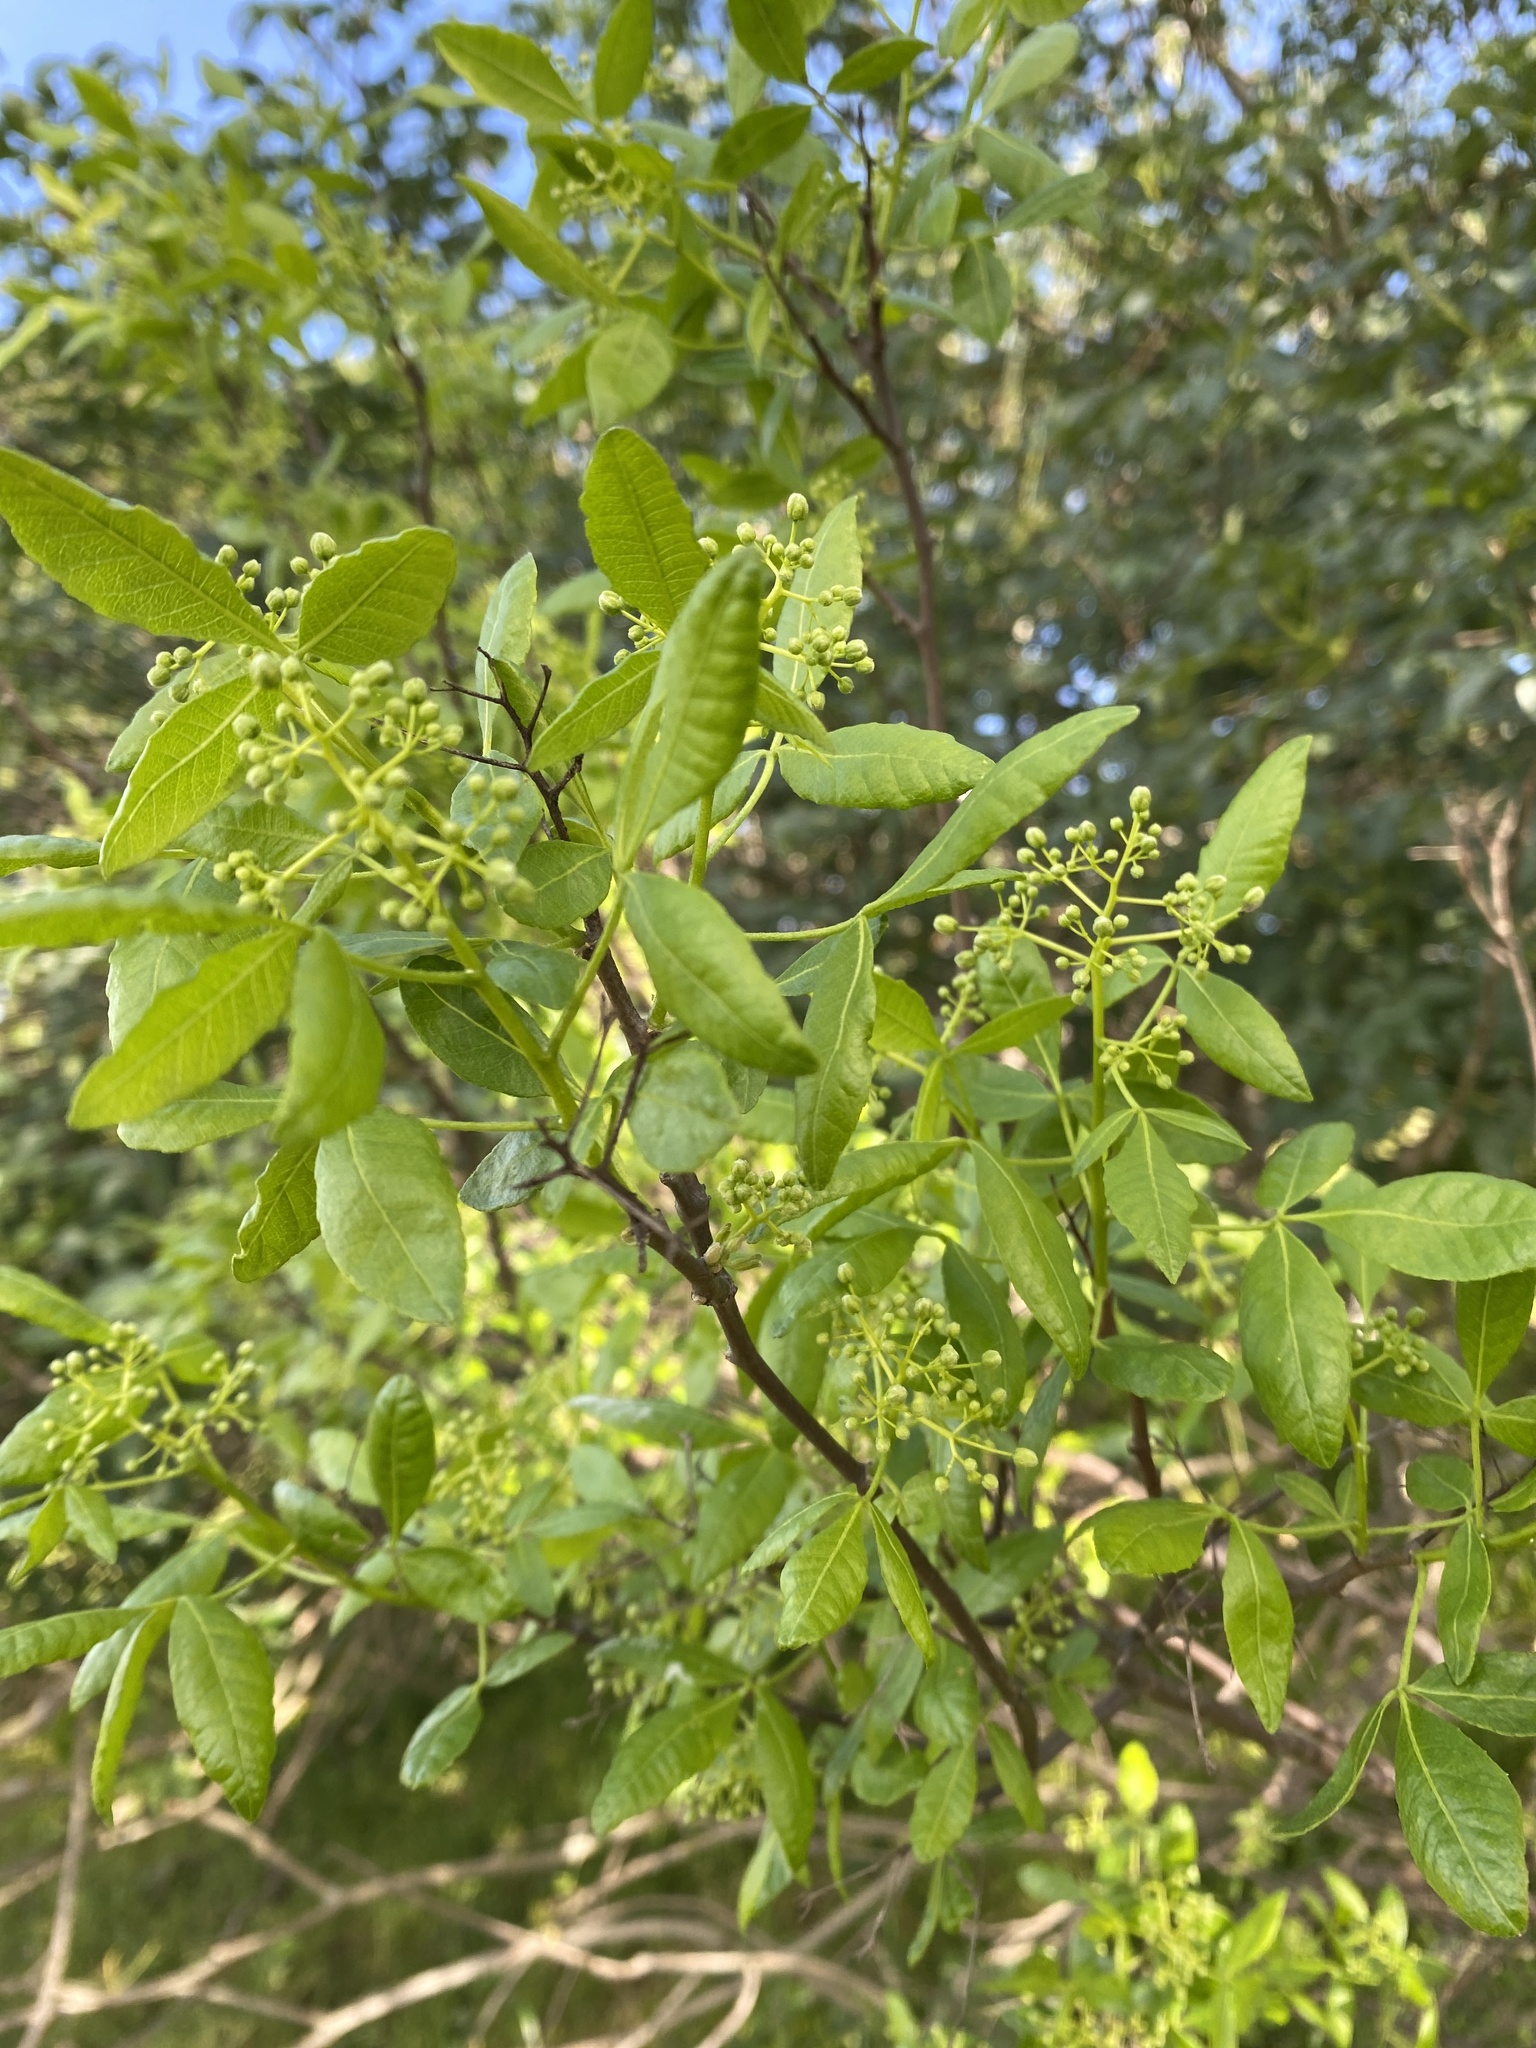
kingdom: Plantae
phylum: Tracheophyta
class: Magnoliopsida
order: Sapindales
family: Rutaceae
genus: Ptelea
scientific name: Ptelea crenulata
